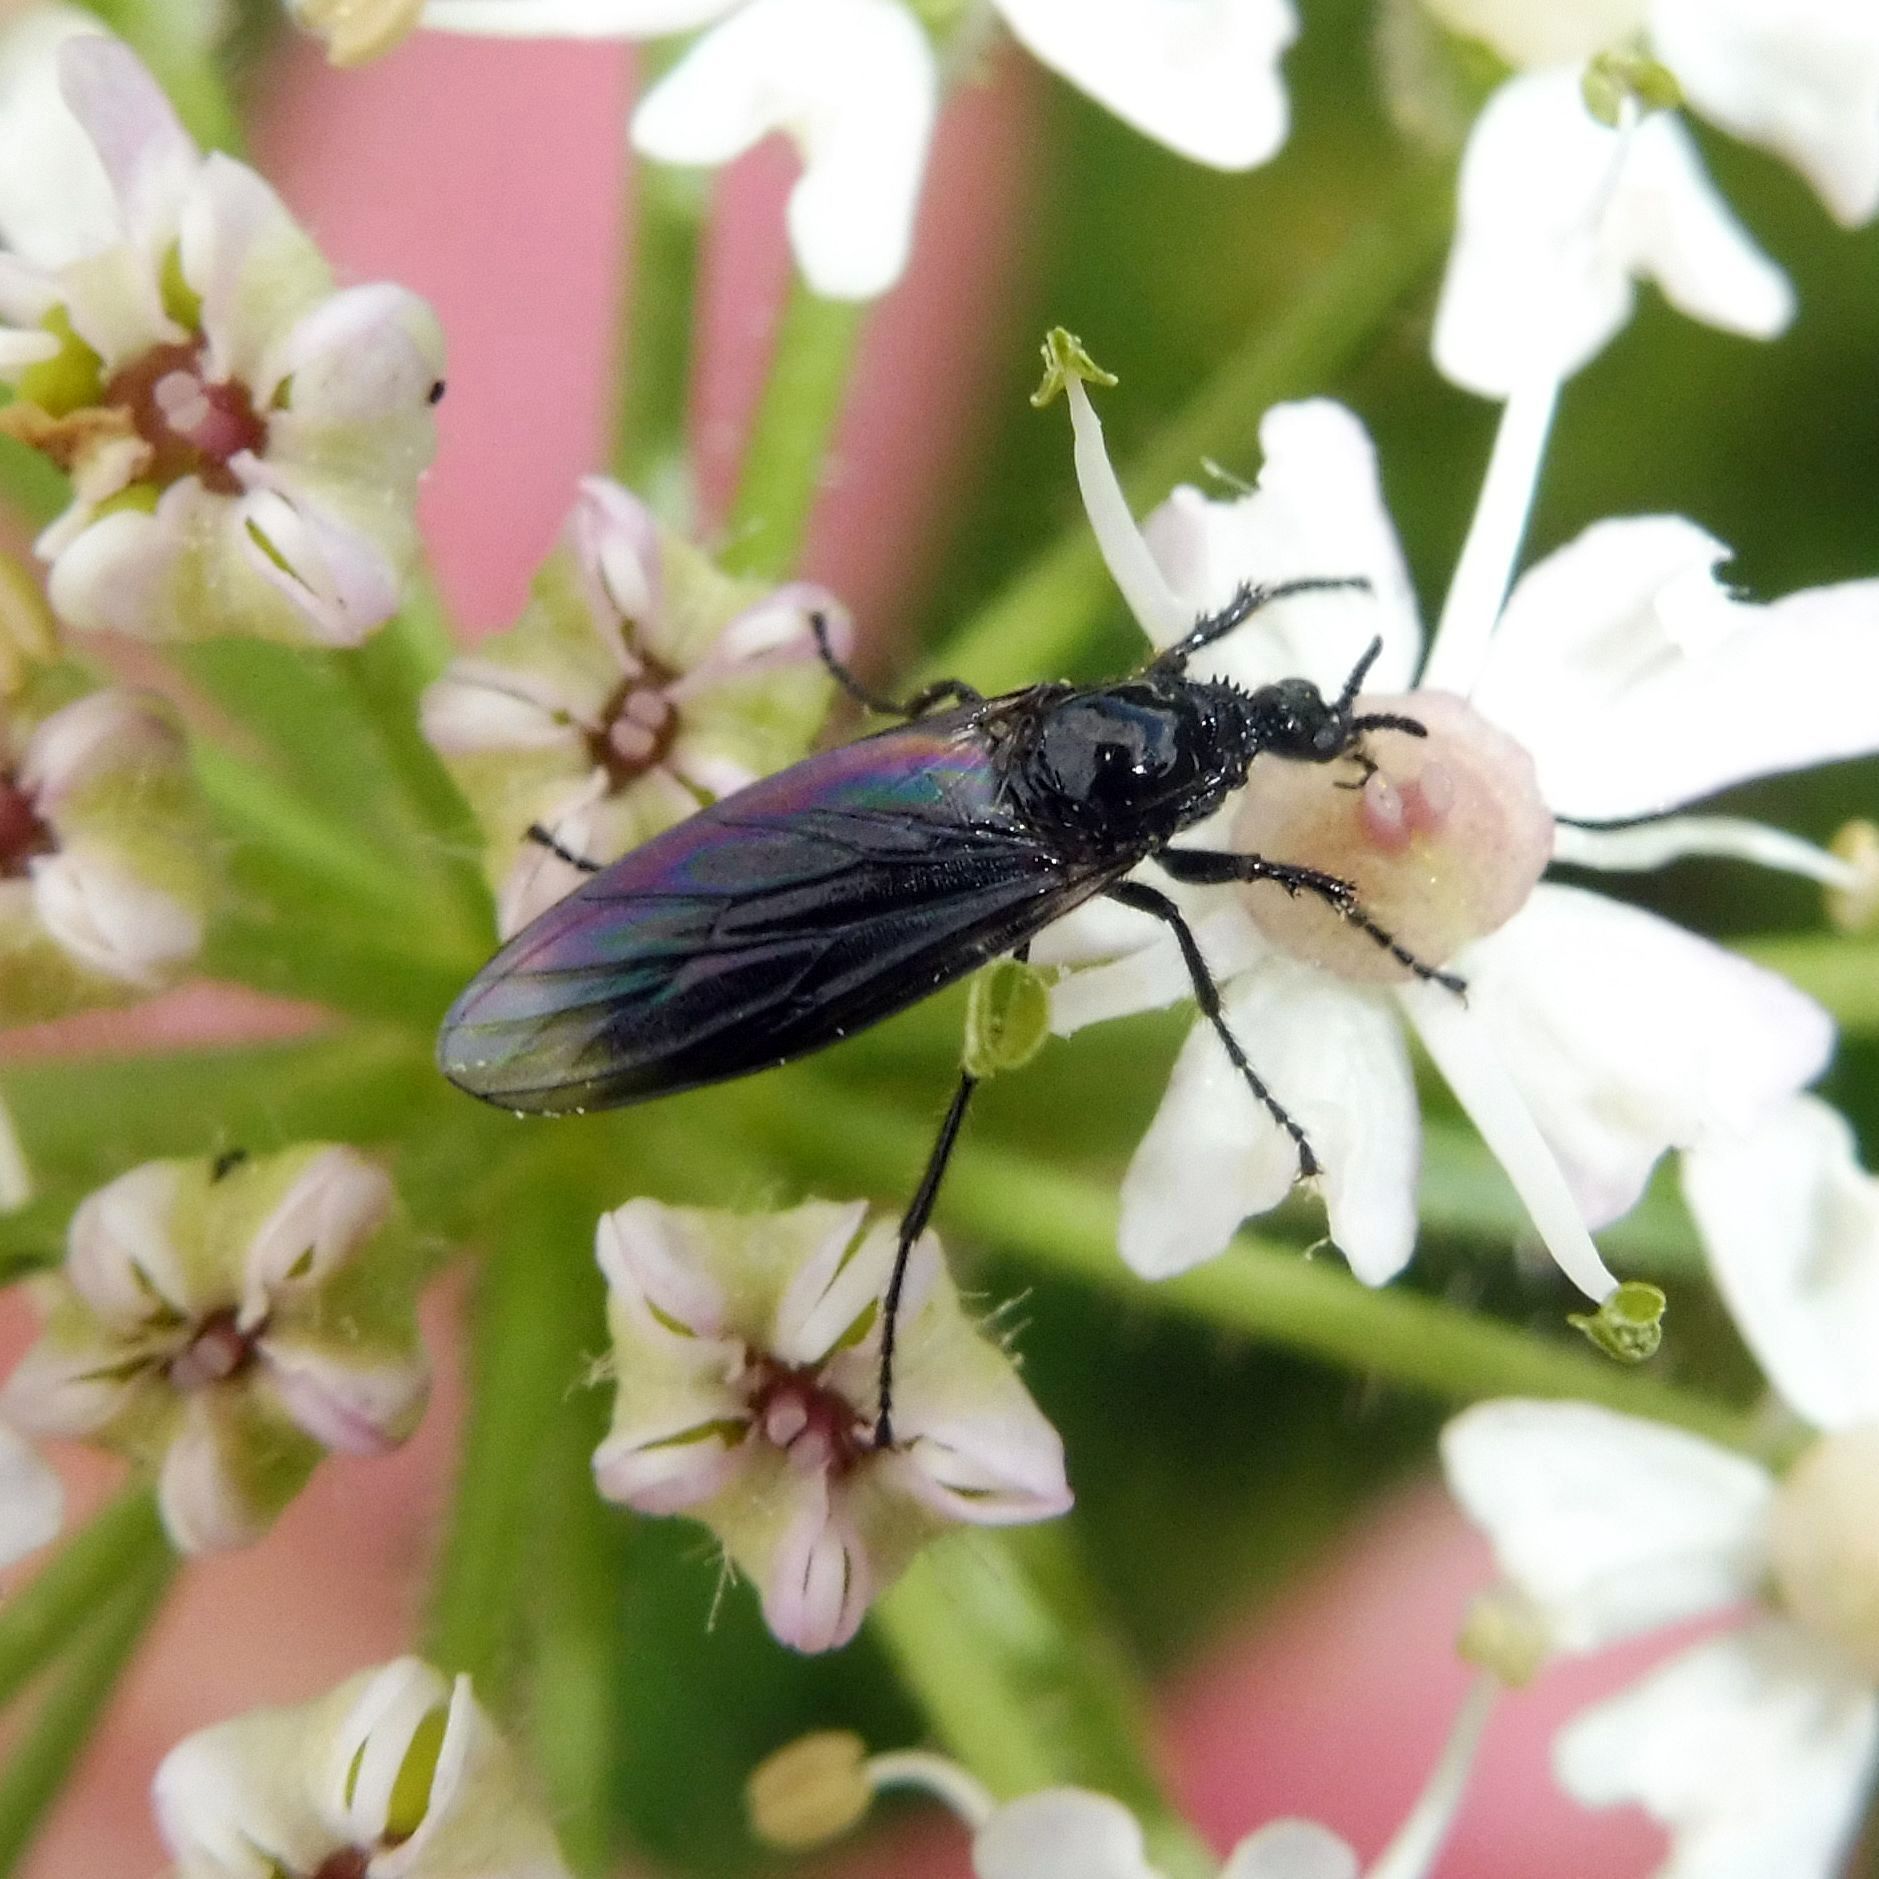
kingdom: Animalia
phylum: Arthropoda
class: Insecta
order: Diptera
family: Bibionidae
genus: Dilophus
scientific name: Dilophus febrilis
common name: Fever fly
